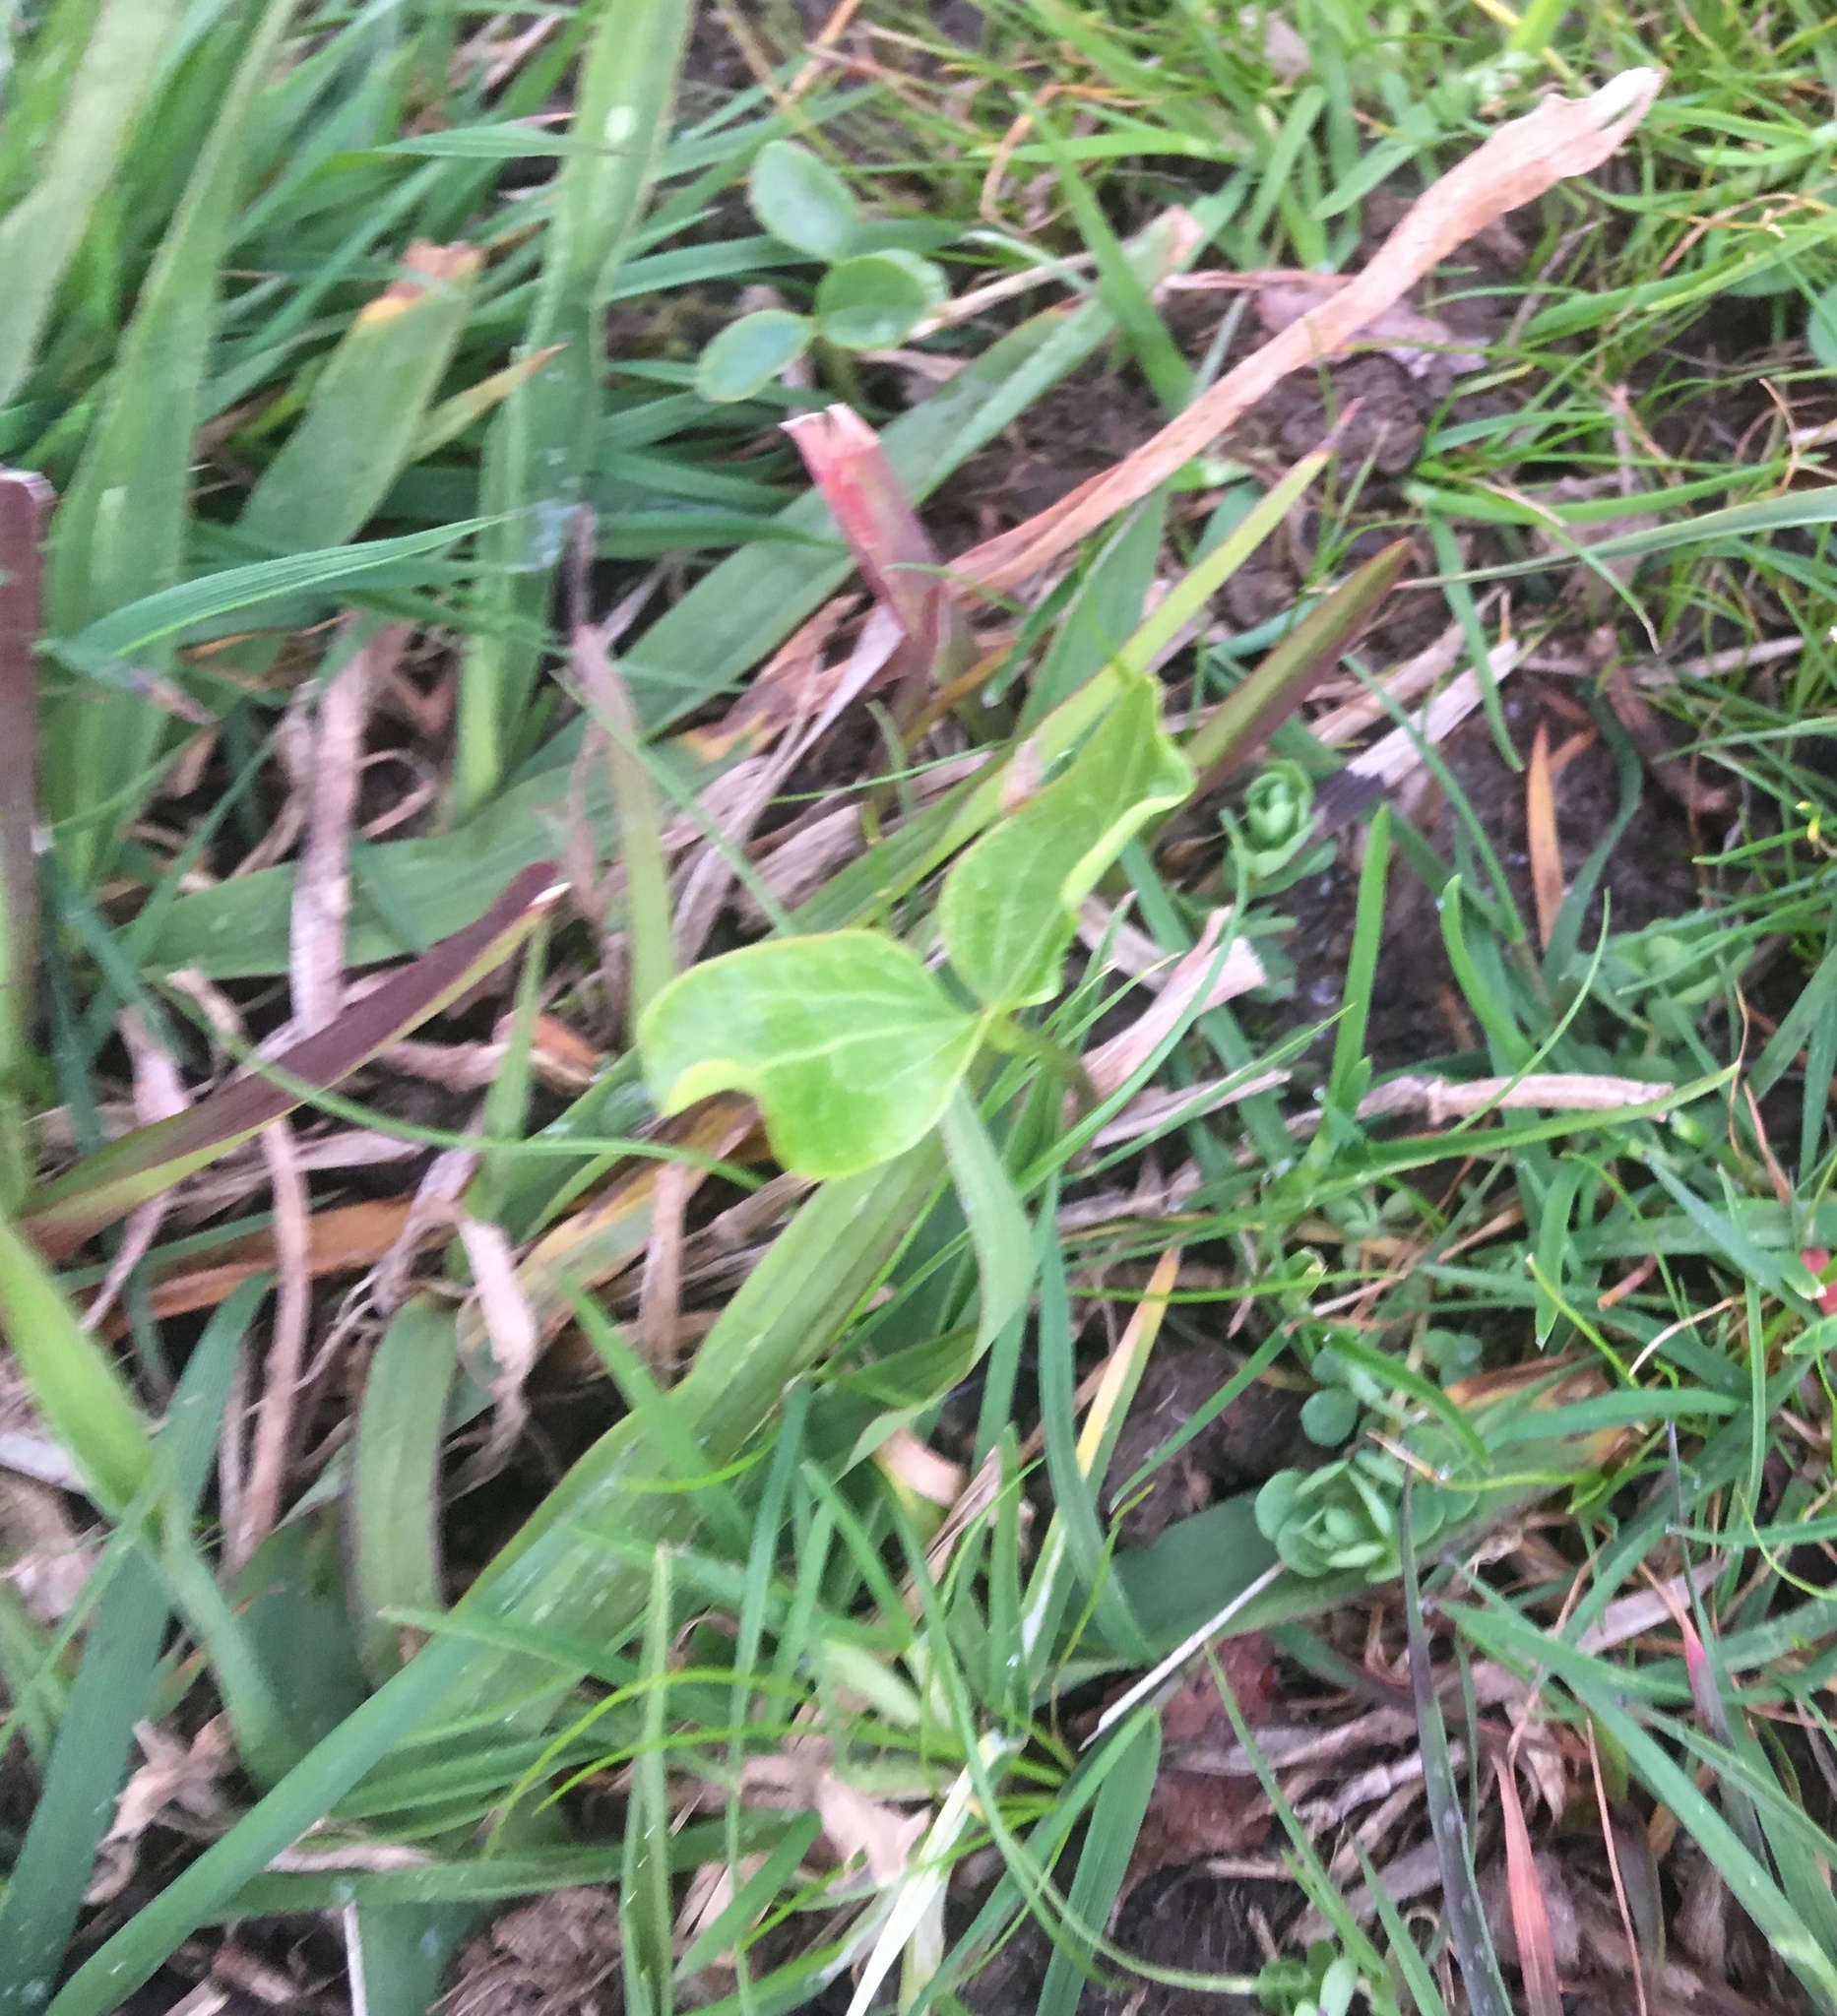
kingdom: Plantae
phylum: Tracheophyta
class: Magnoliopsida
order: Apiales
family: Araliaceae
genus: Hedera
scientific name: Hedera helix
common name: Ivy
